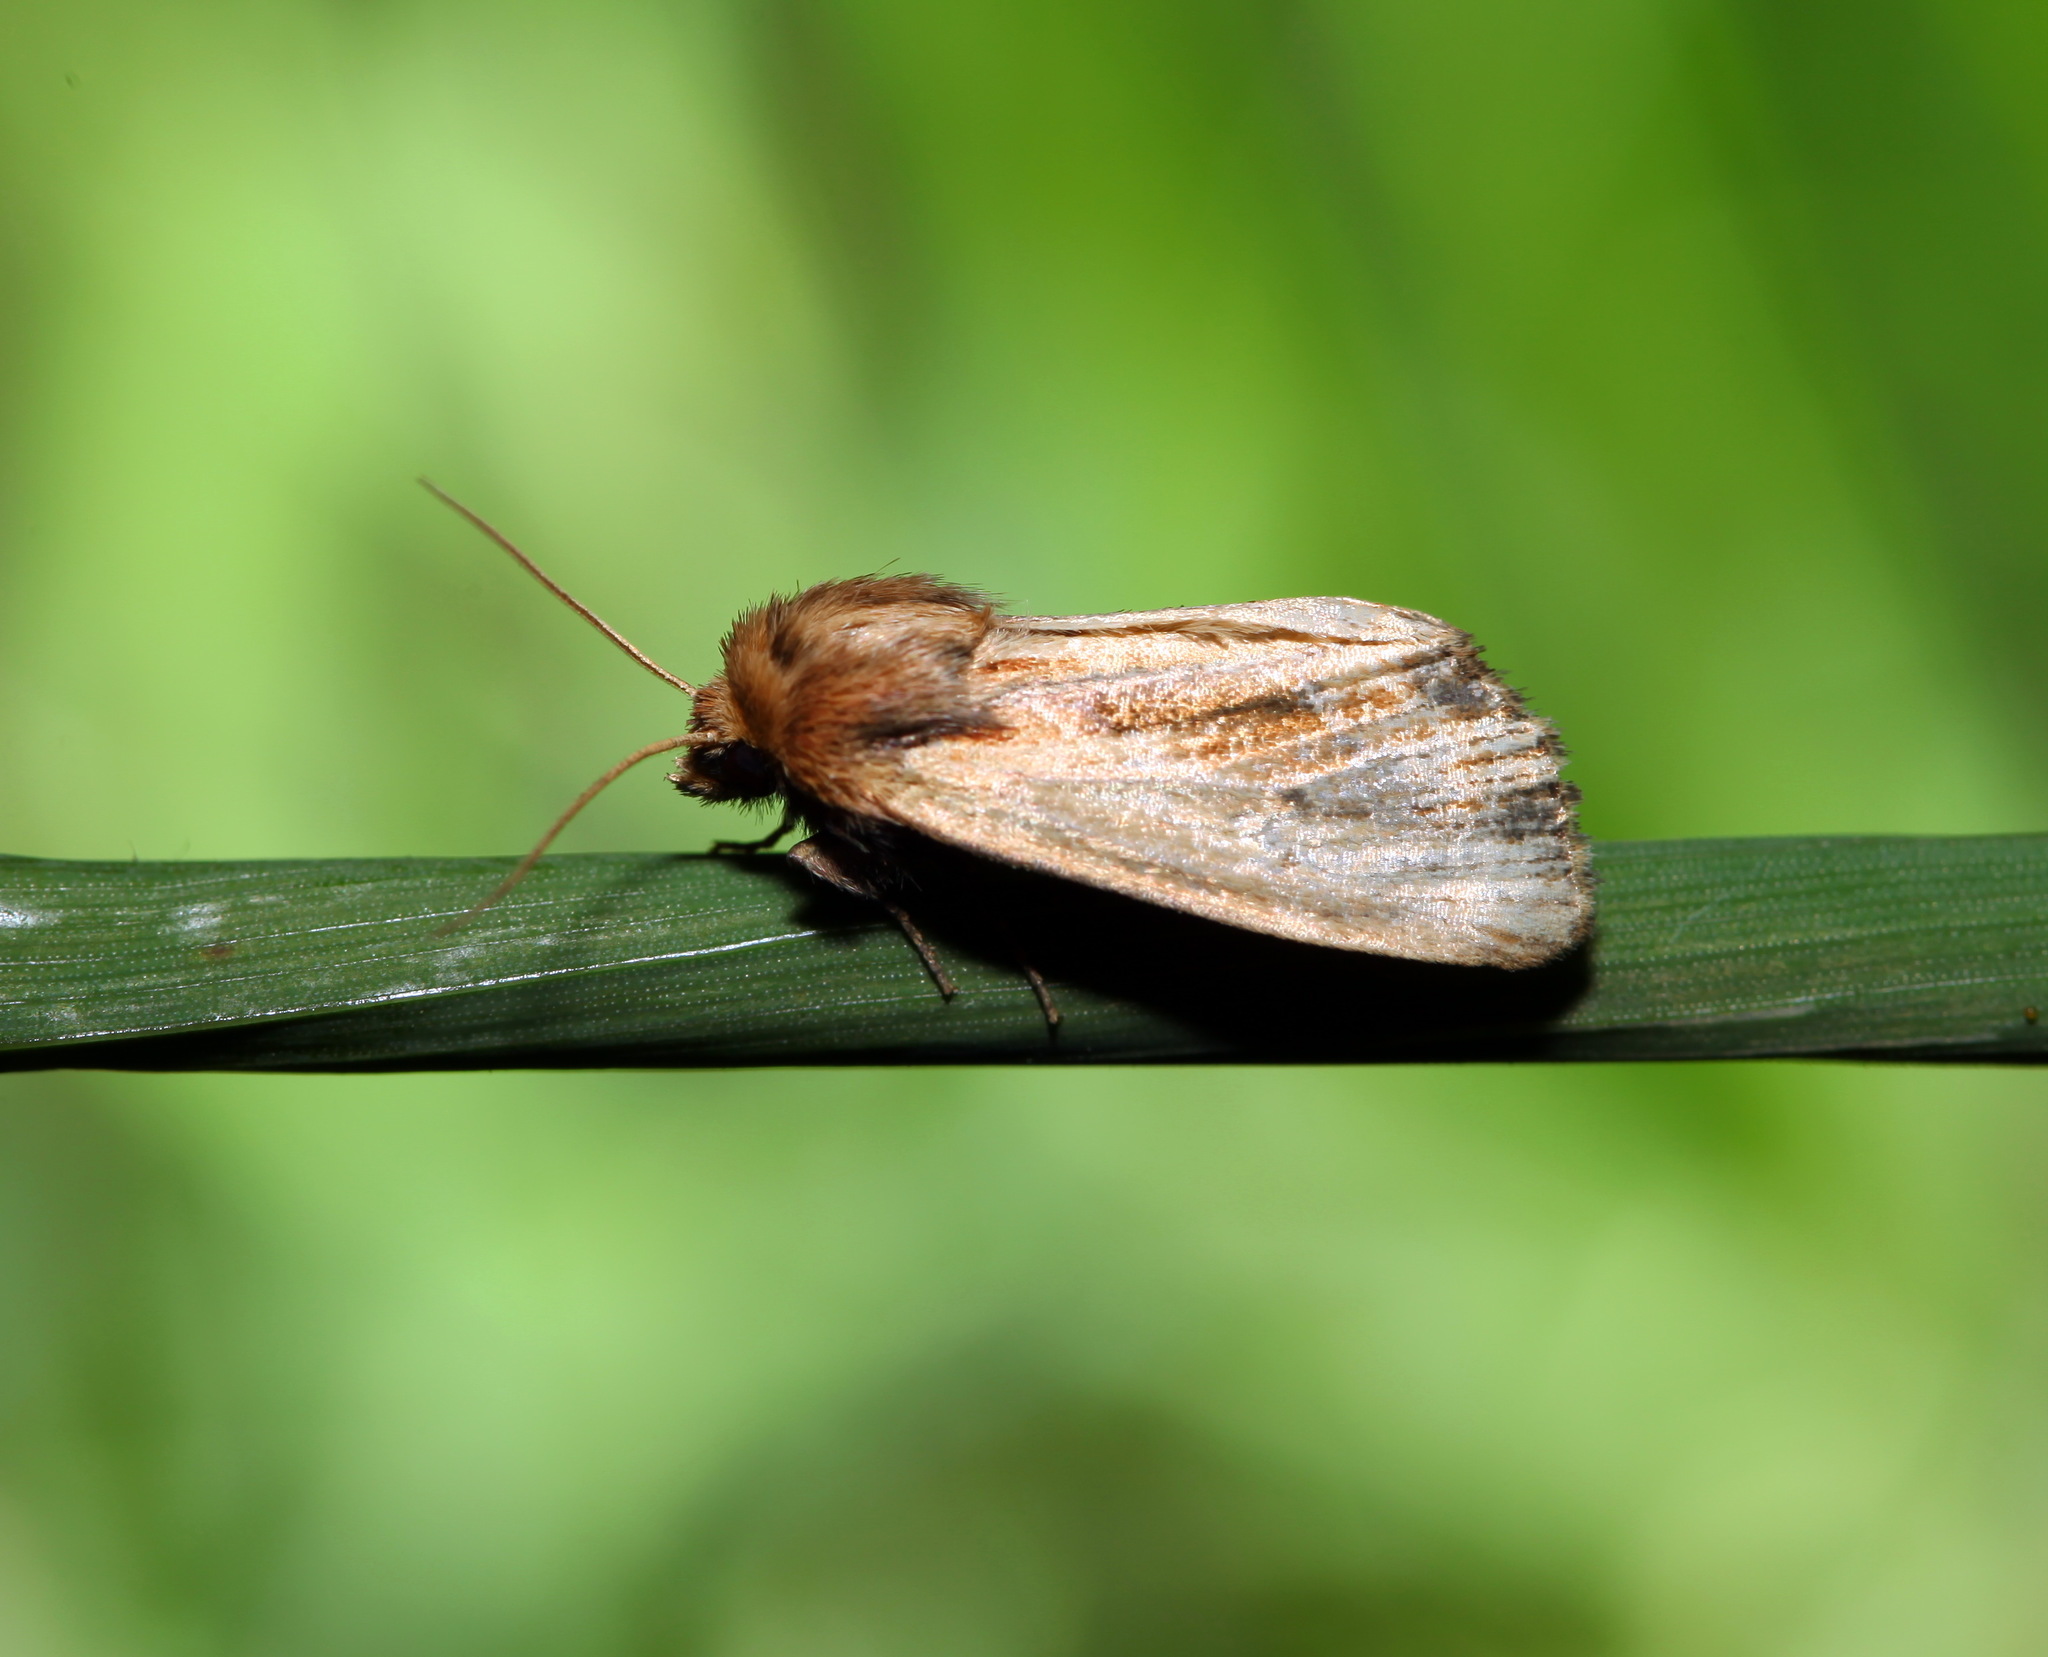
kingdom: Animalia
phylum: Arthropoda
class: Insecta
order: Lepidoptera
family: Noctuidae
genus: Xylomoia
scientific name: Xylomoia graminea
